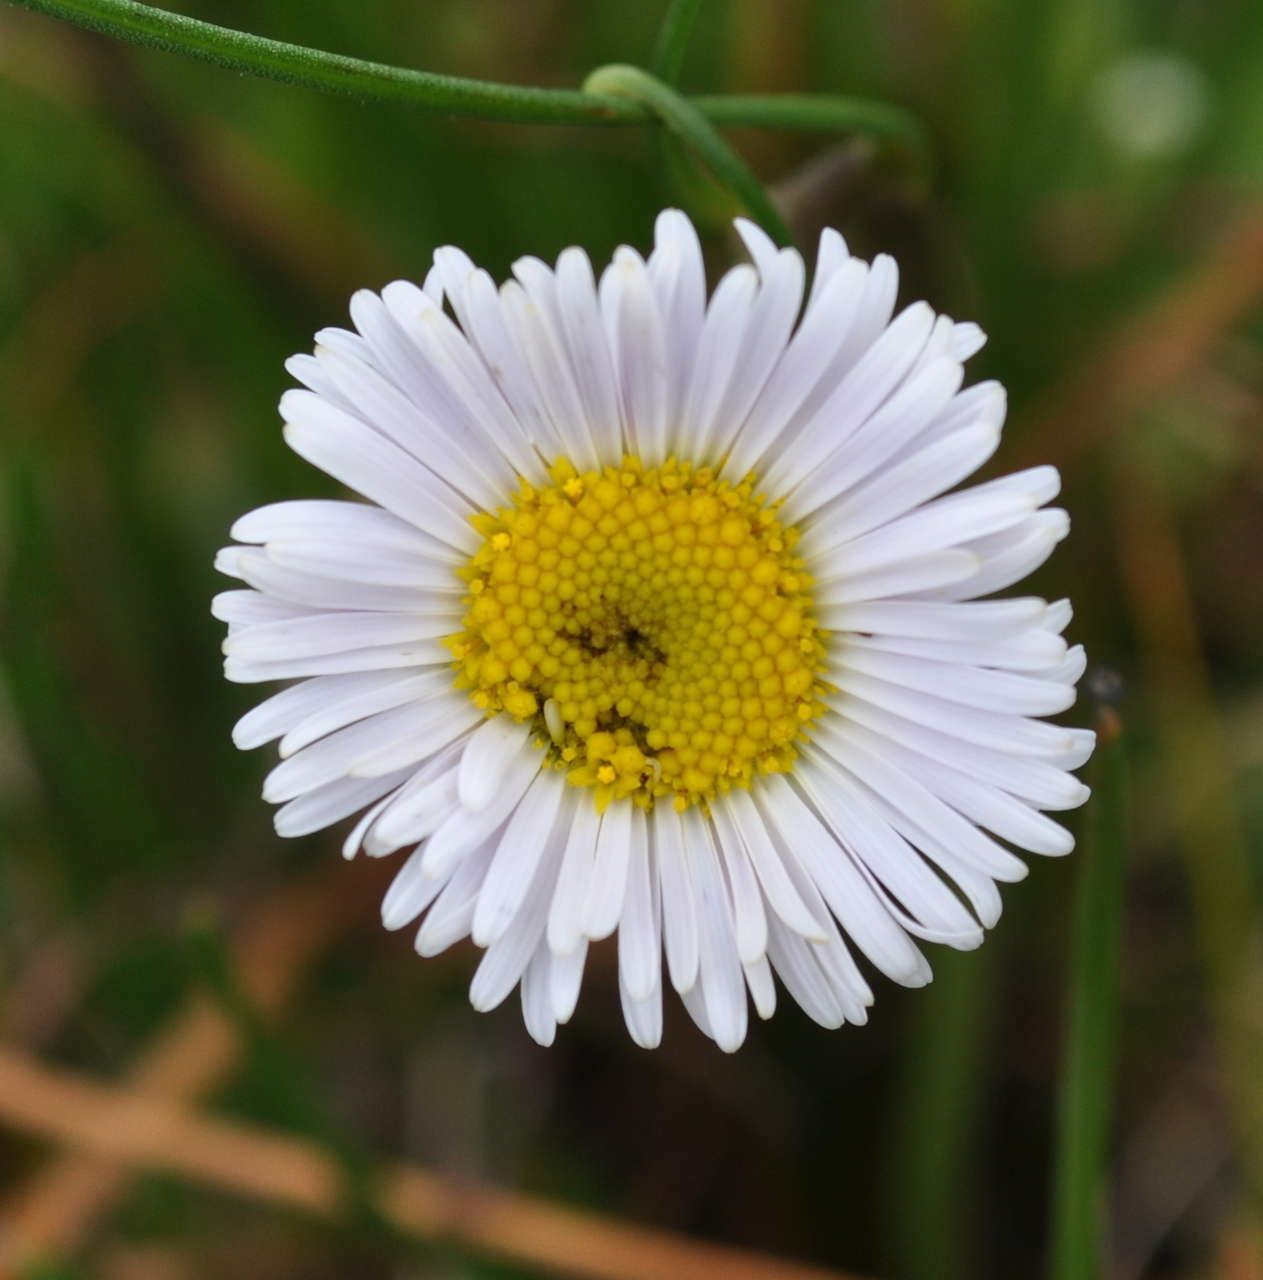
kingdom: Plantae
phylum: Tracheophyta
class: Magnoliopsida
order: Asterales
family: Asteraceae
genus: Allittia
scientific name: Allittia cardiocarpa
